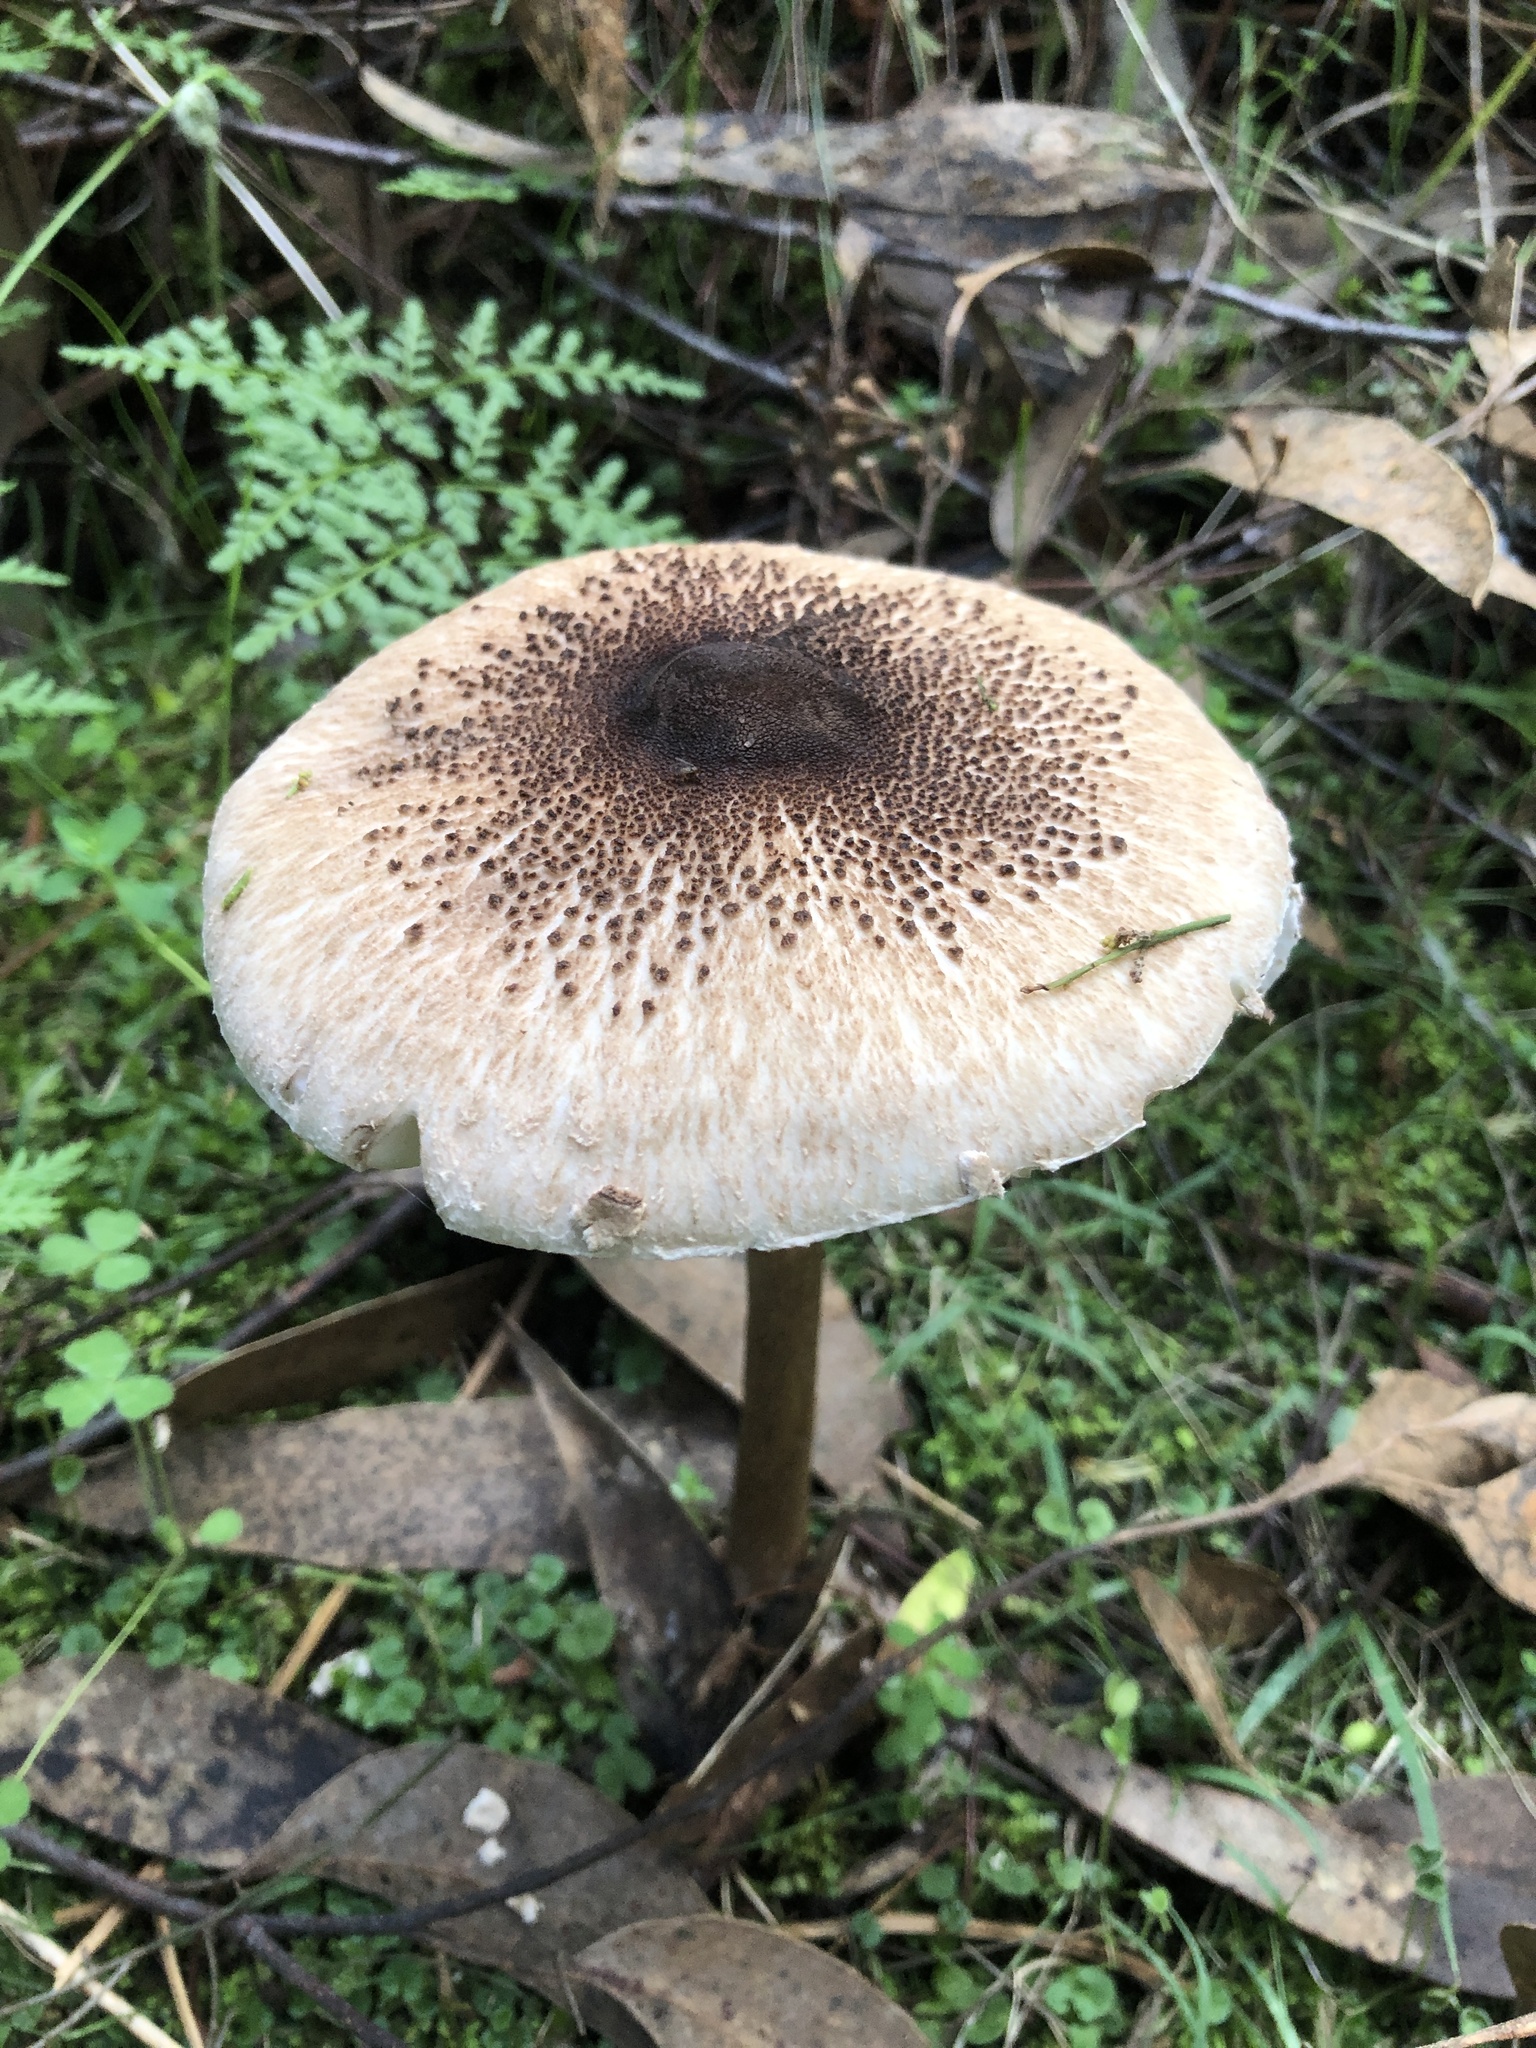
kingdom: Fungi
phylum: Basidiomycota
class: Agaricomycetes
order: Agaricales
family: Agaricaceae
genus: Macrolepiota
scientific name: Macrolepiota clelandii
